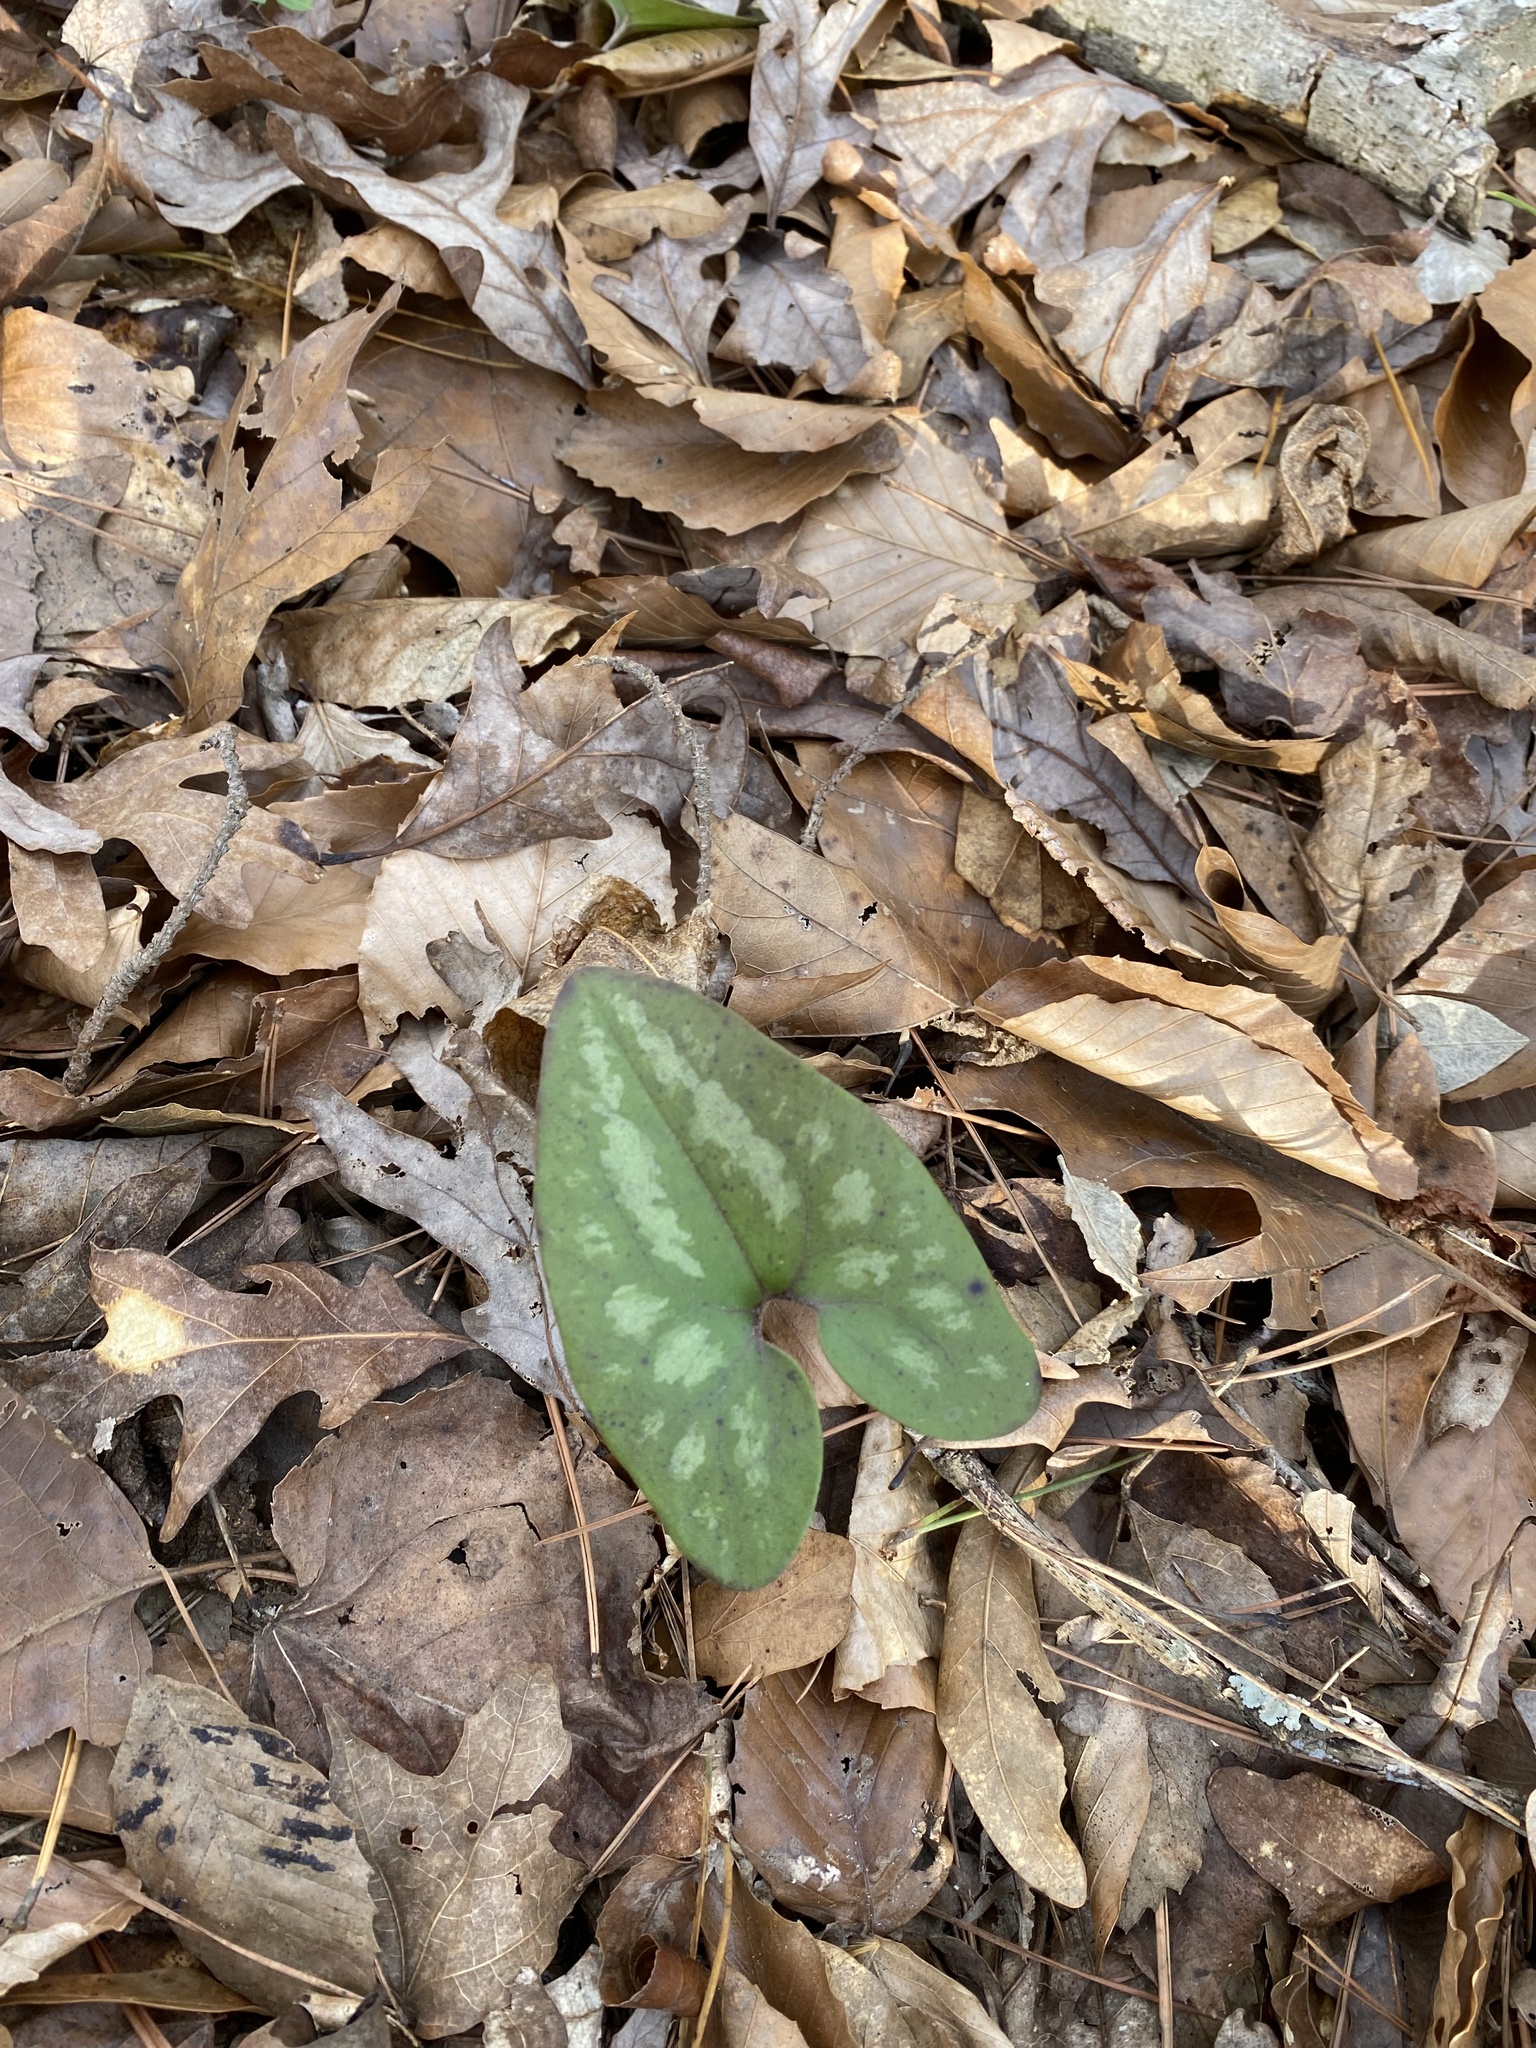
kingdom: Plantae
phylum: Tracheophyta
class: Magnoliopsida
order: Piperales
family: Aristolochiaceae
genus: Hexastylis
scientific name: Hexastylis arifolia
